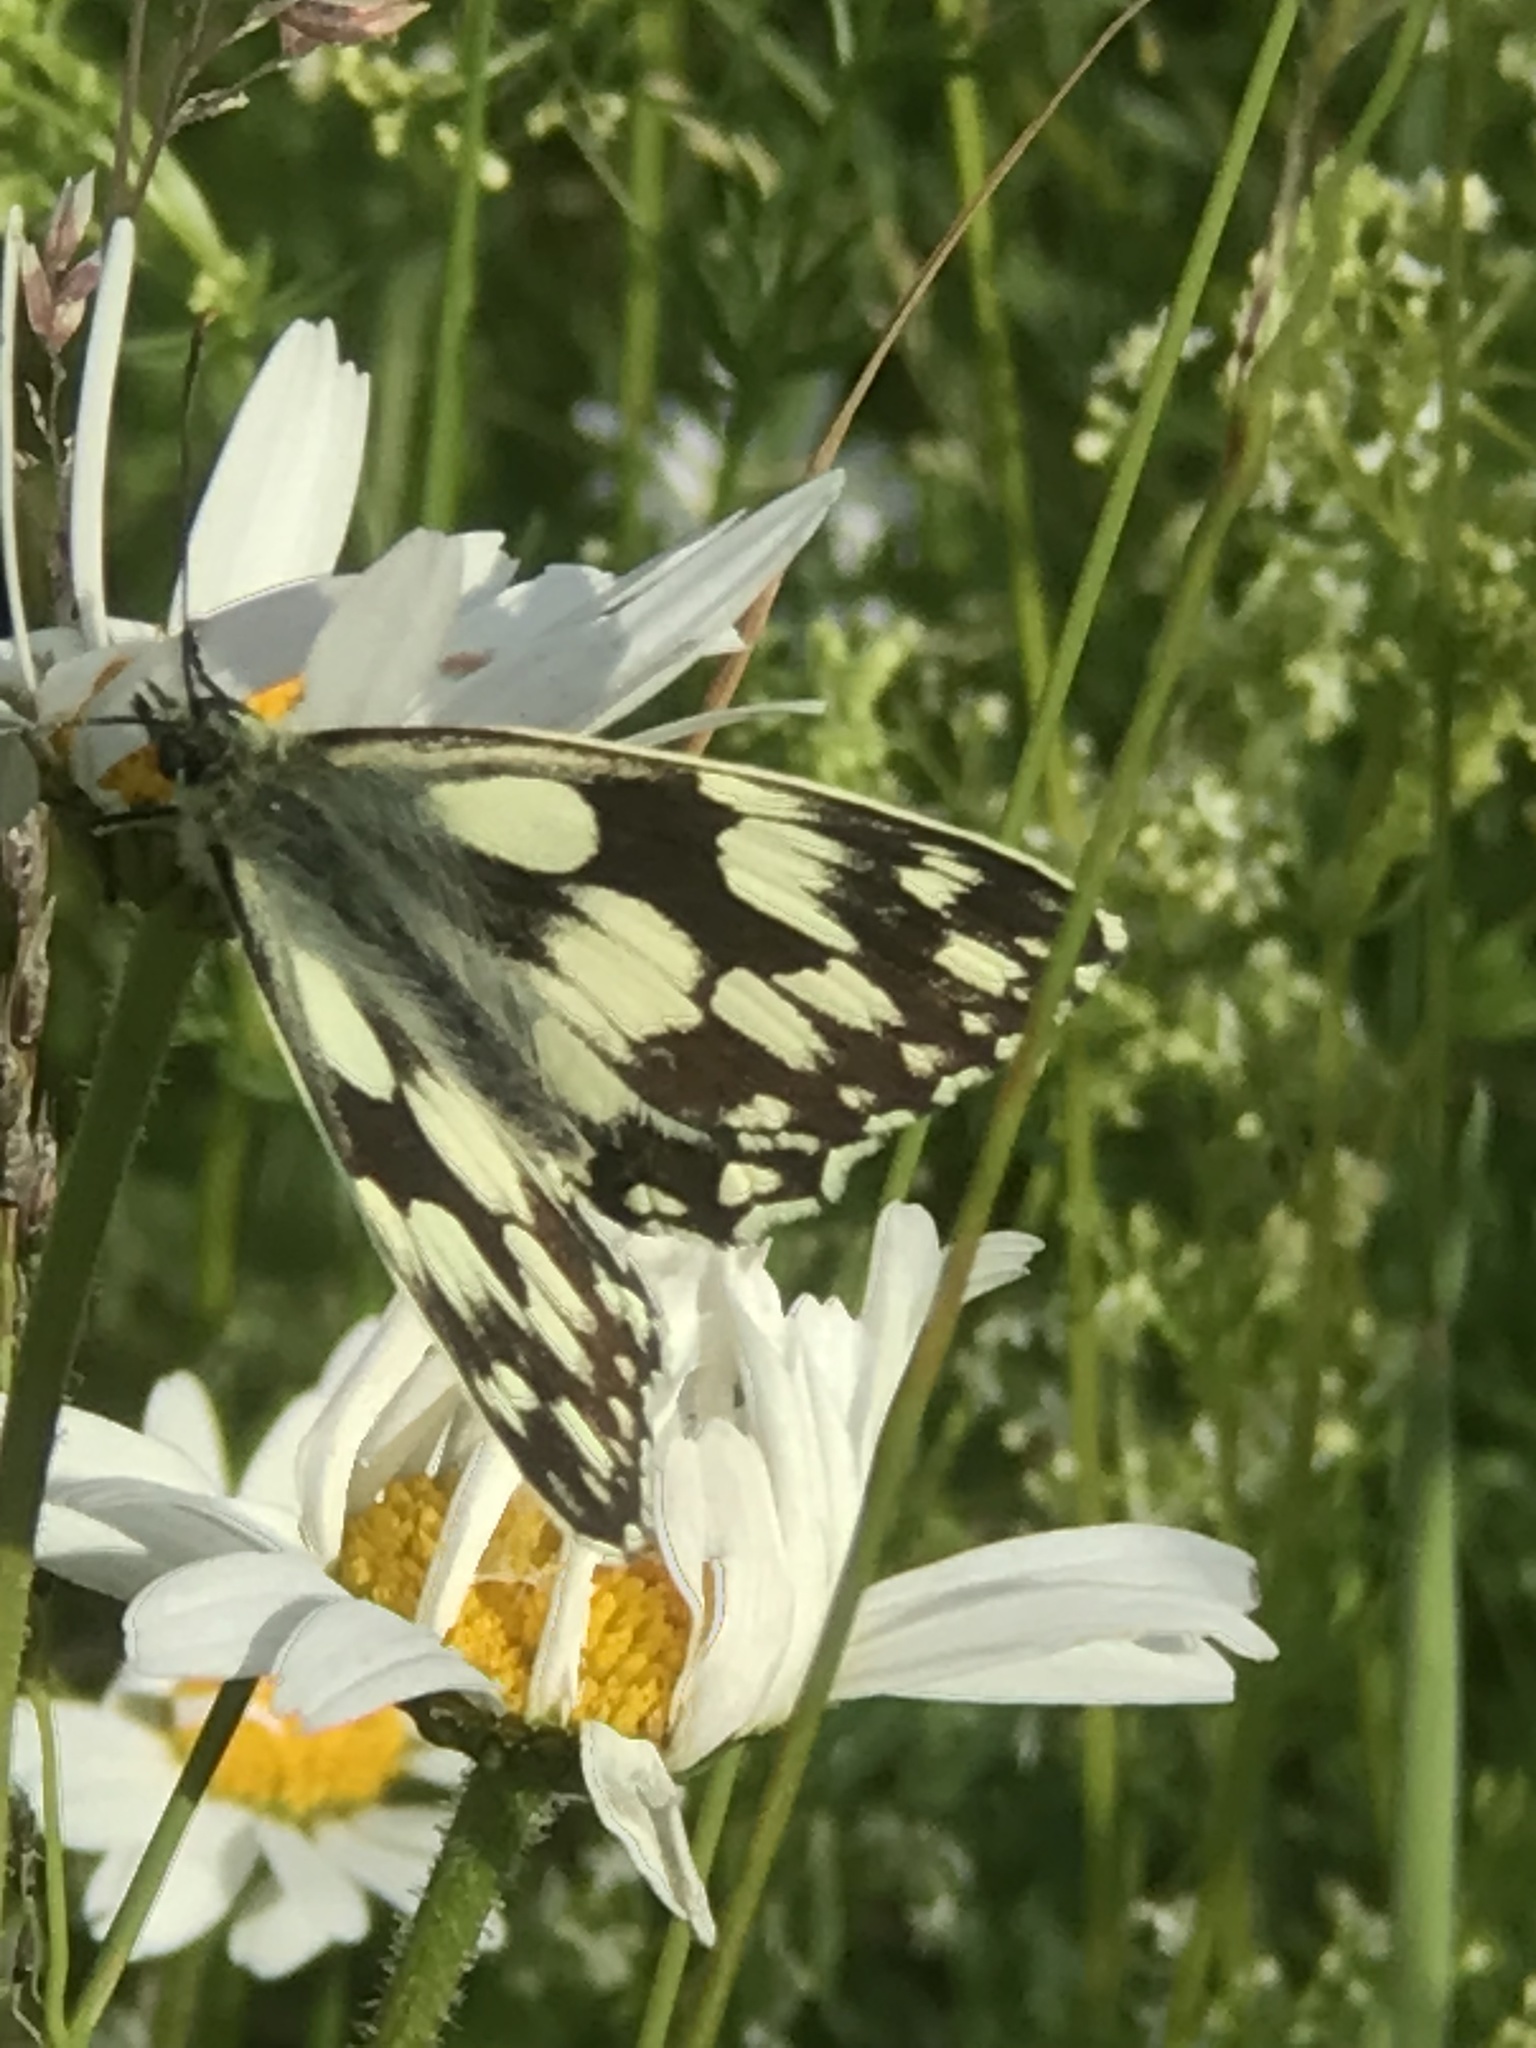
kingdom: Animalia
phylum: Arthropoda
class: Insecta
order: Lepidoptera
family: Nymphalidae
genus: Melanargia
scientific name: Melanargia galathea
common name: Marbled white
